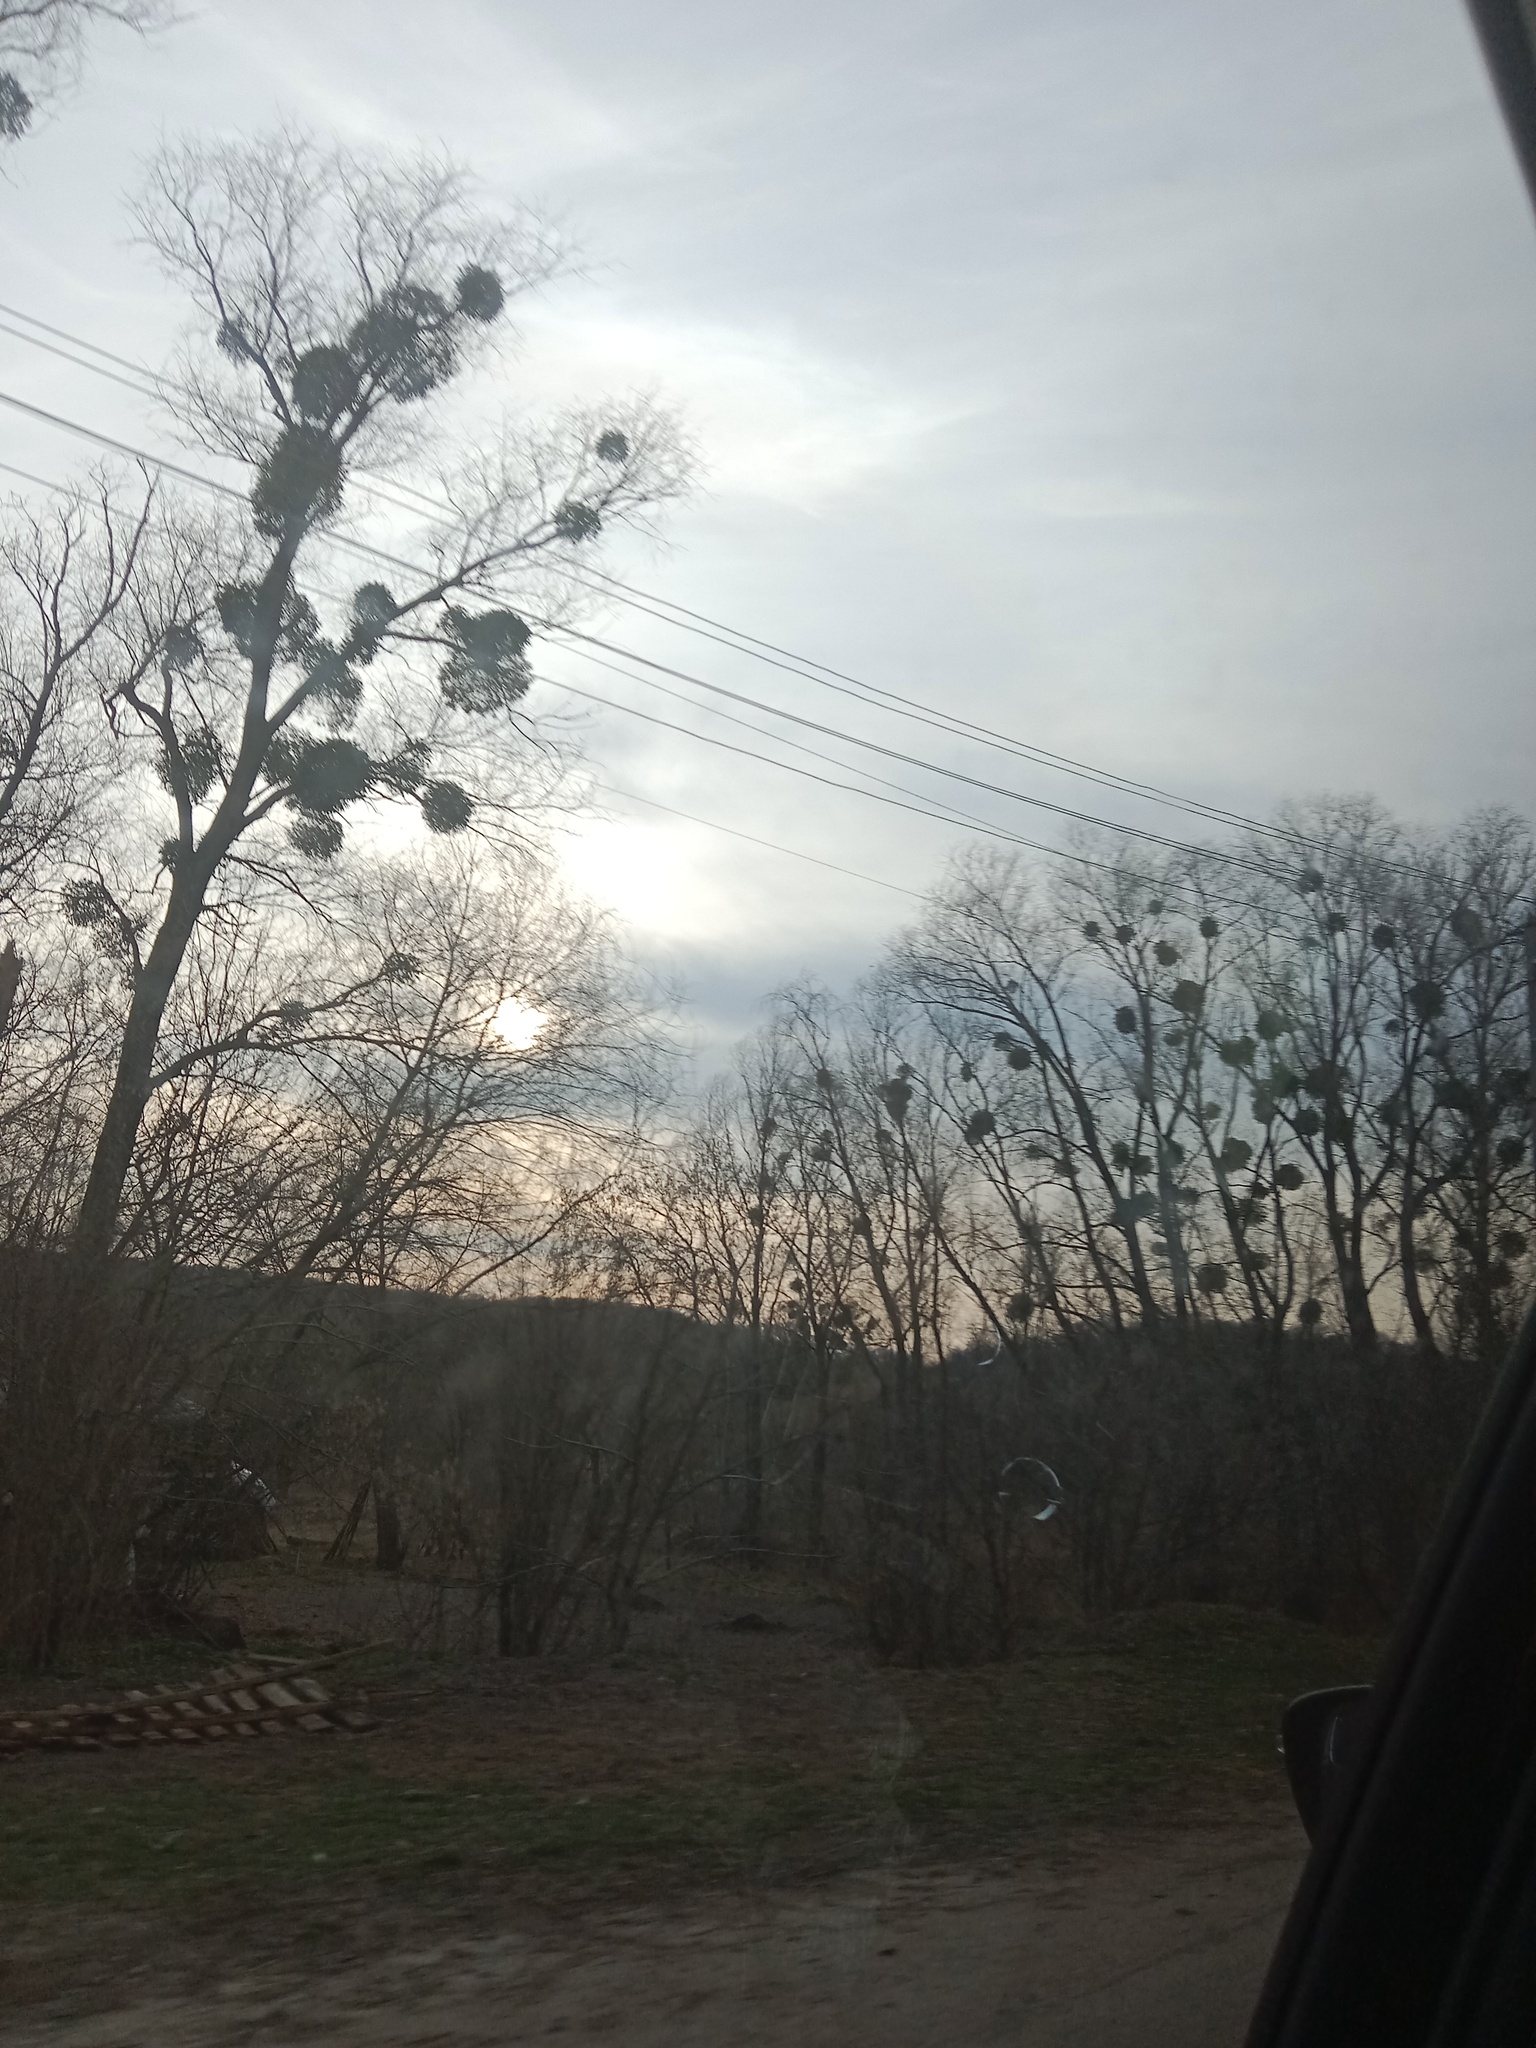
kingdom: Plantae
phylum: Tracheophyta
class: Magnoliopsida
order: Santalales
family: Viscaceae
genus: Viscum
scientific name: Viscum album
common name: Mistletoe
